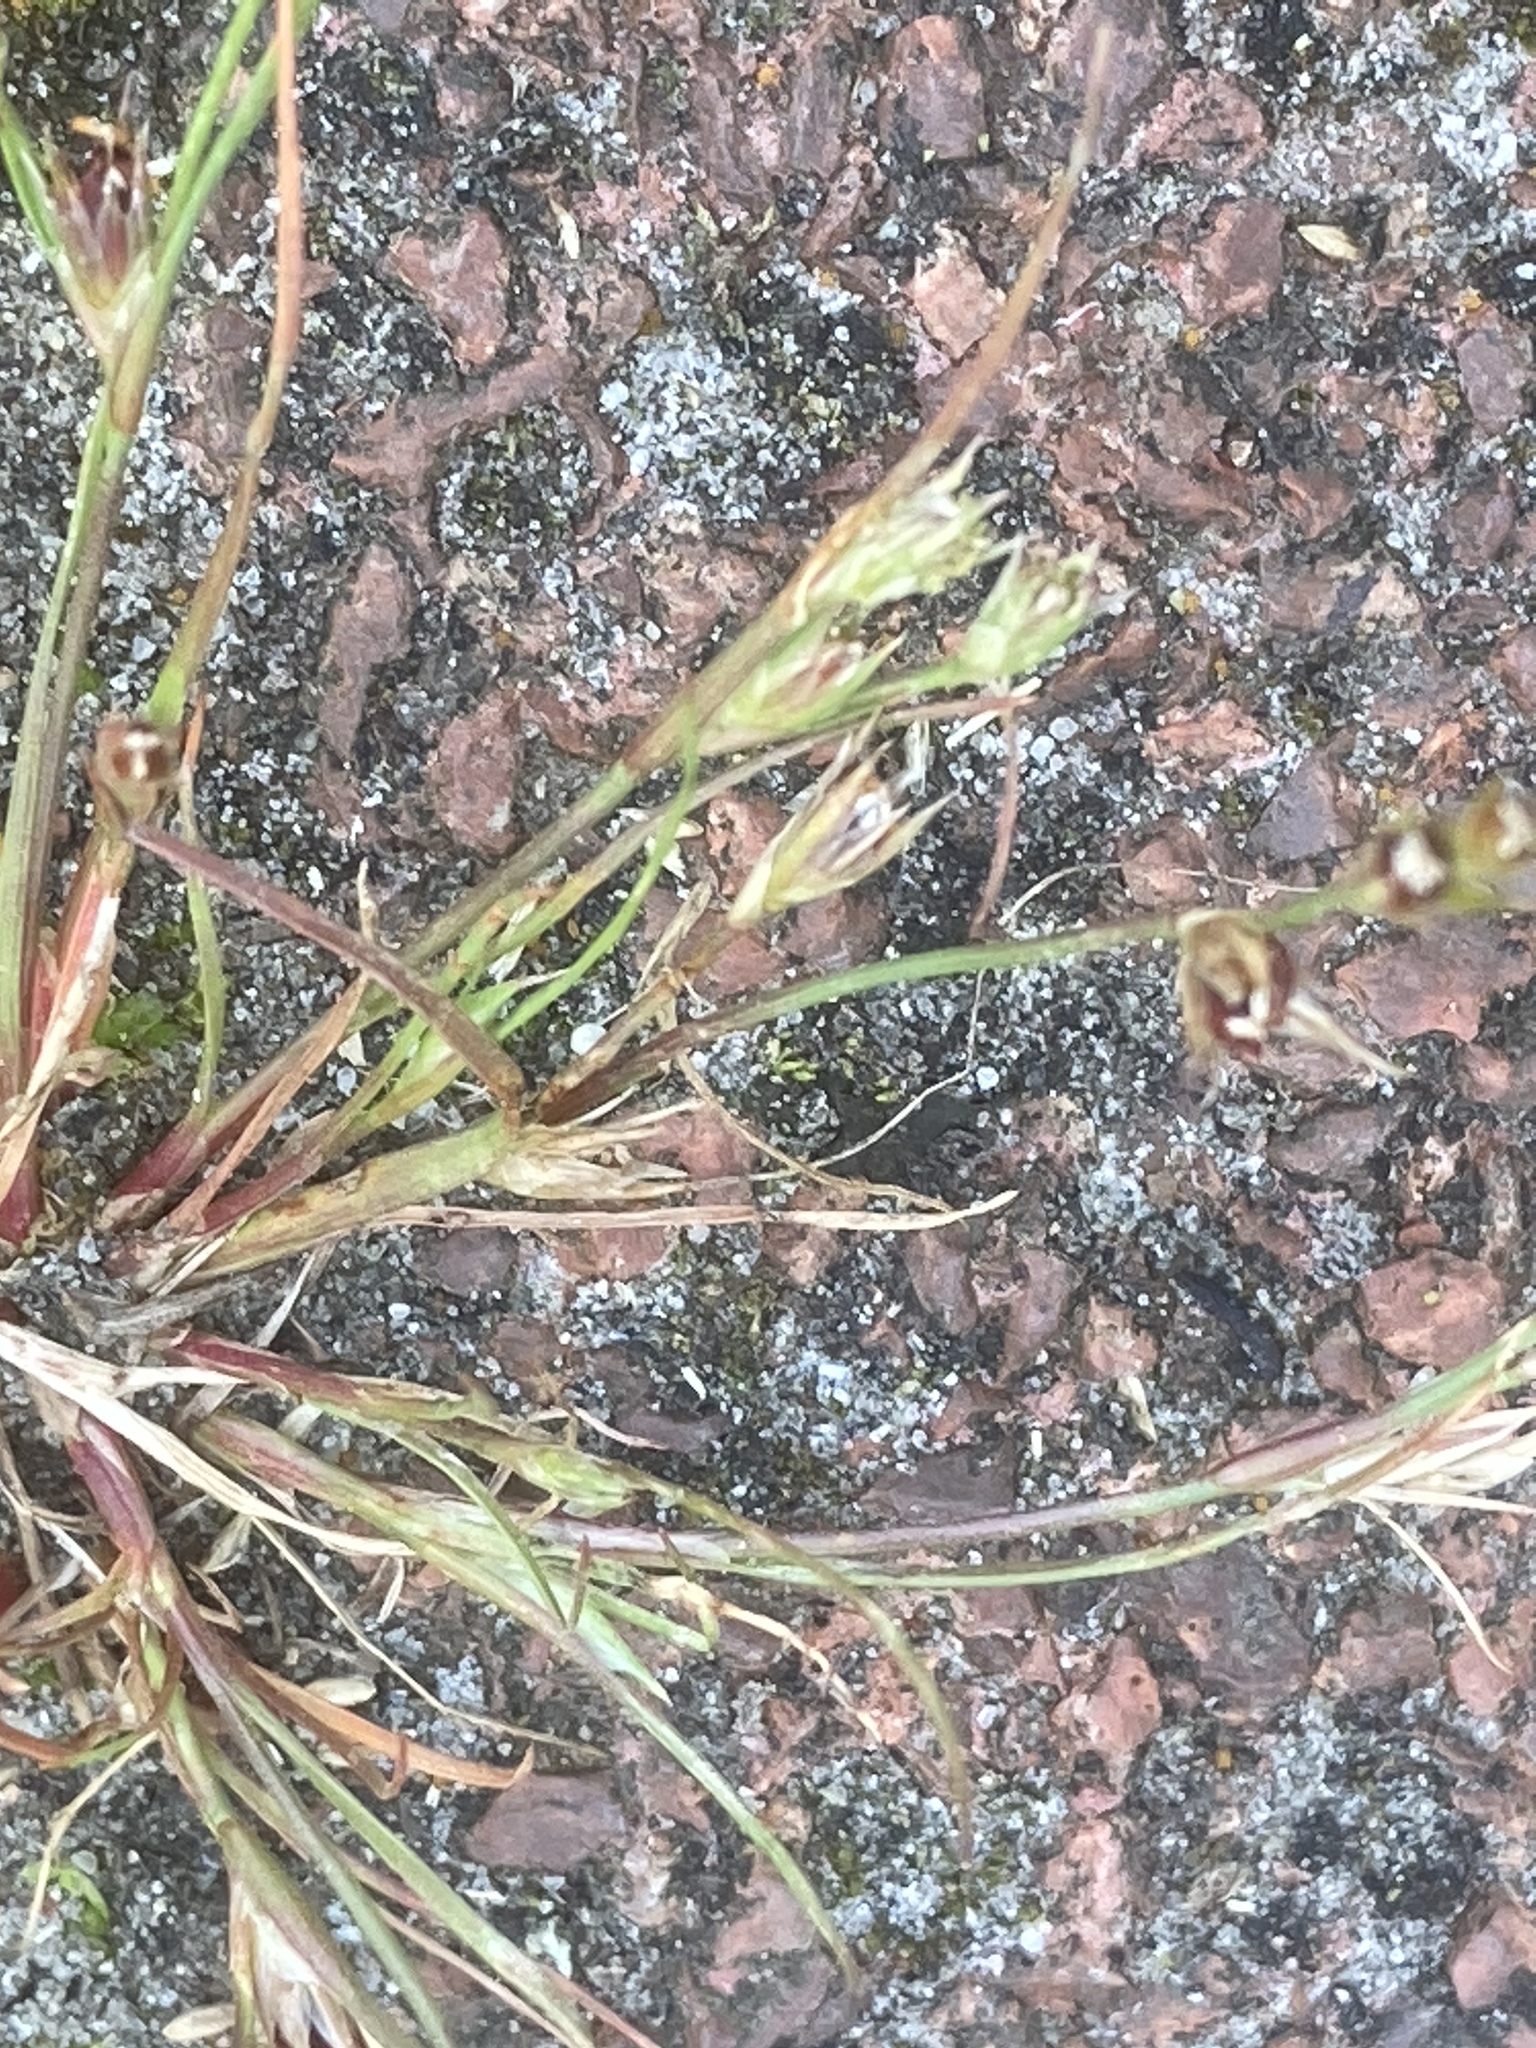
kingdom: Plantae
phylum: Tracheophyta
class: Liliopsida
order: Poales
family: Juncaceae
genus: Juncus
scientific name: Juncus bufonius
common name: Toad rush
